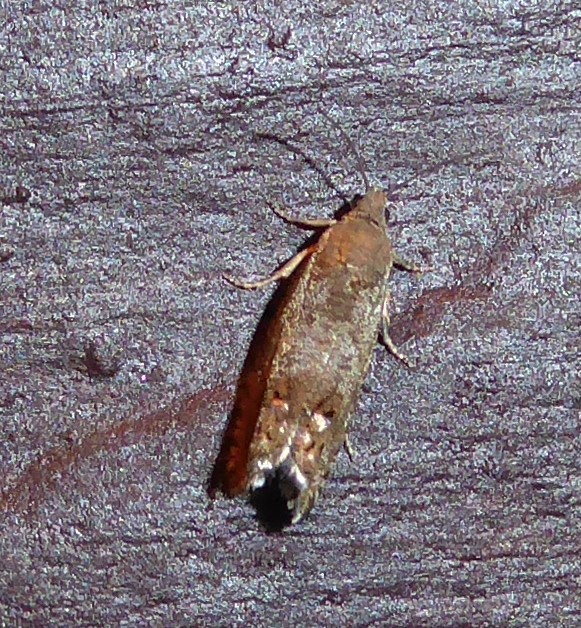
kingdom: Animalia
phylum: Arthropoda
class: Insecta
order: Lepidoptera
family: Tortricidae
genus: Cydia
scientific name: Cydia succedana
